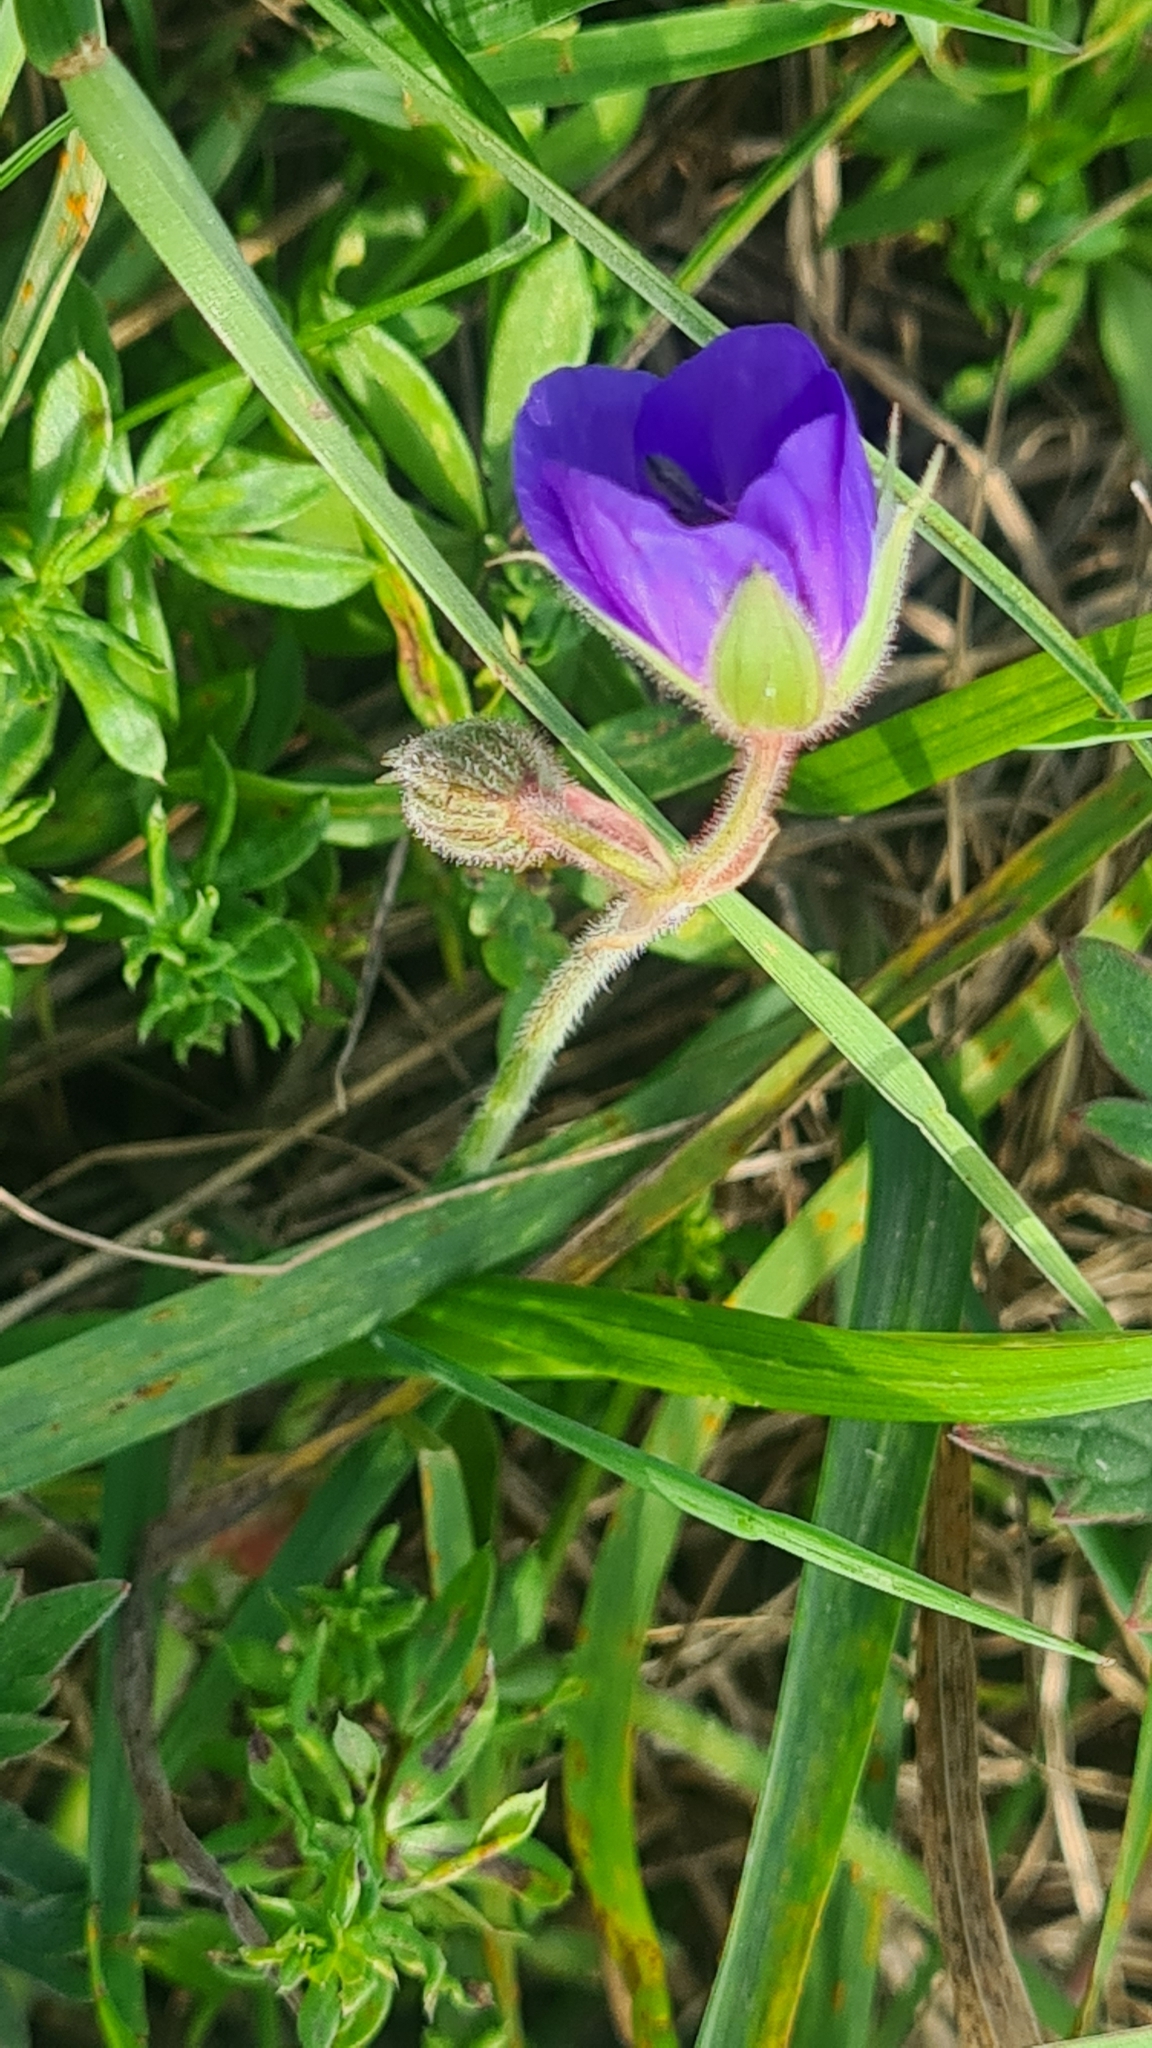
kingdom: Plantae
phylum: Tracheophyta
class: Magnoliopsida
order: Geraniales
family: Geraniaceae
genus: Geranium
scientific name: Geranium pratense
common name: Meadow crane's-bill
